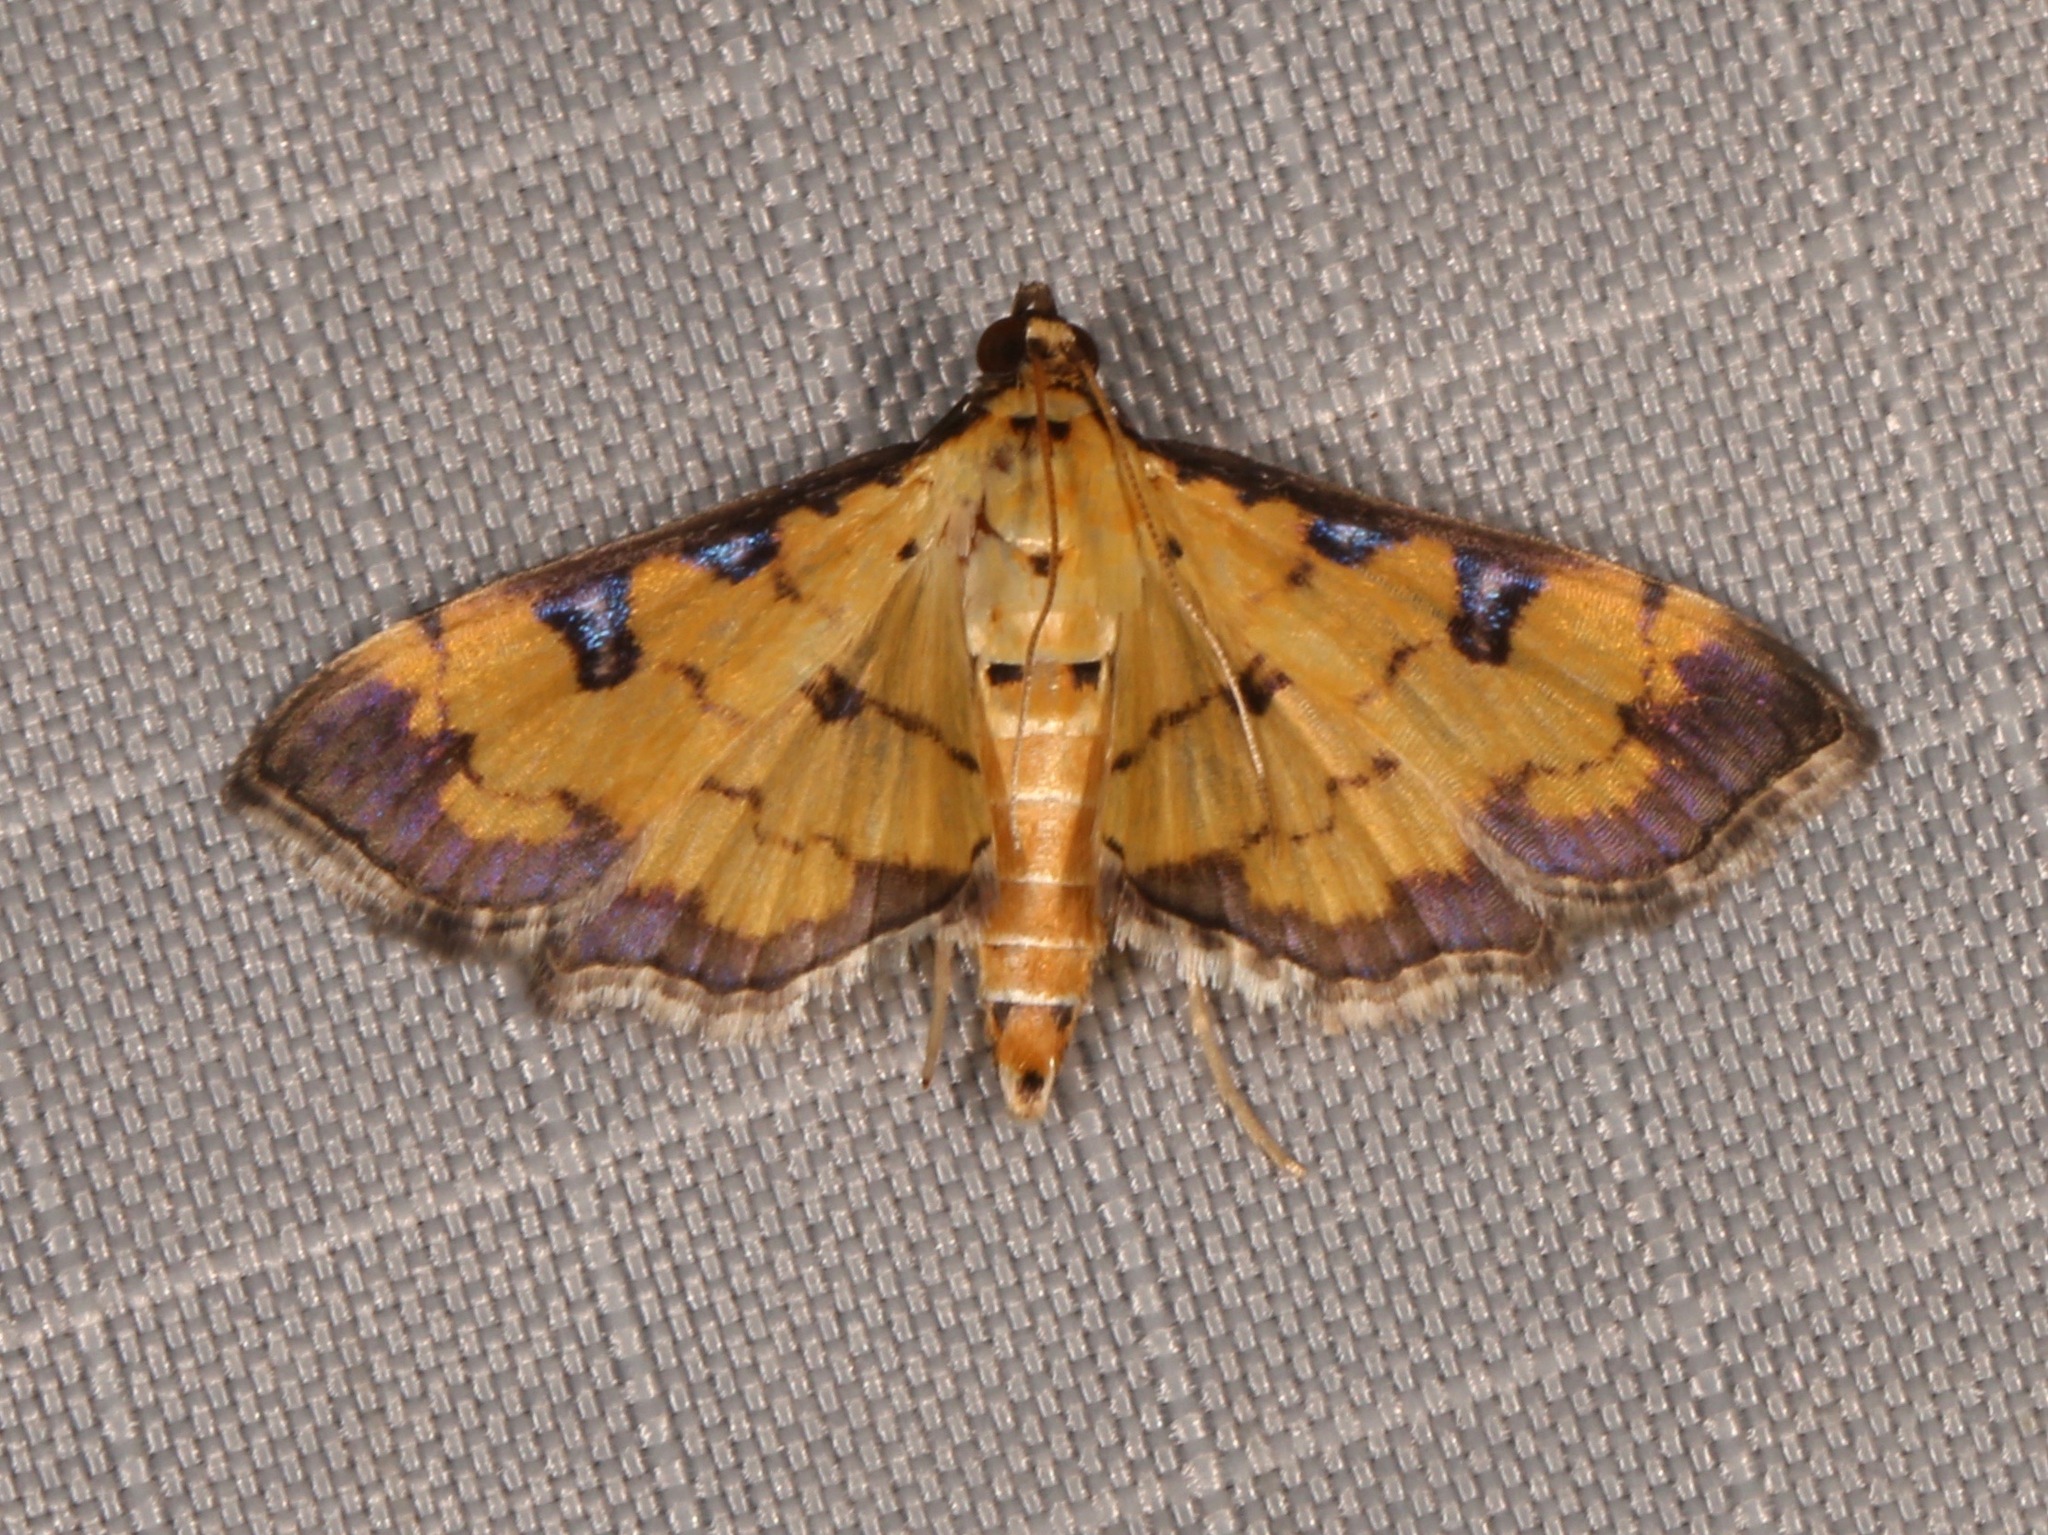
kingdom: Animalia
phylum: Arthropoda
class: Insecta
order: Lepidoptera
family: Crambidae
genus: Ategumia
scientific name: Ategumia ebulealis
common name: Moth
